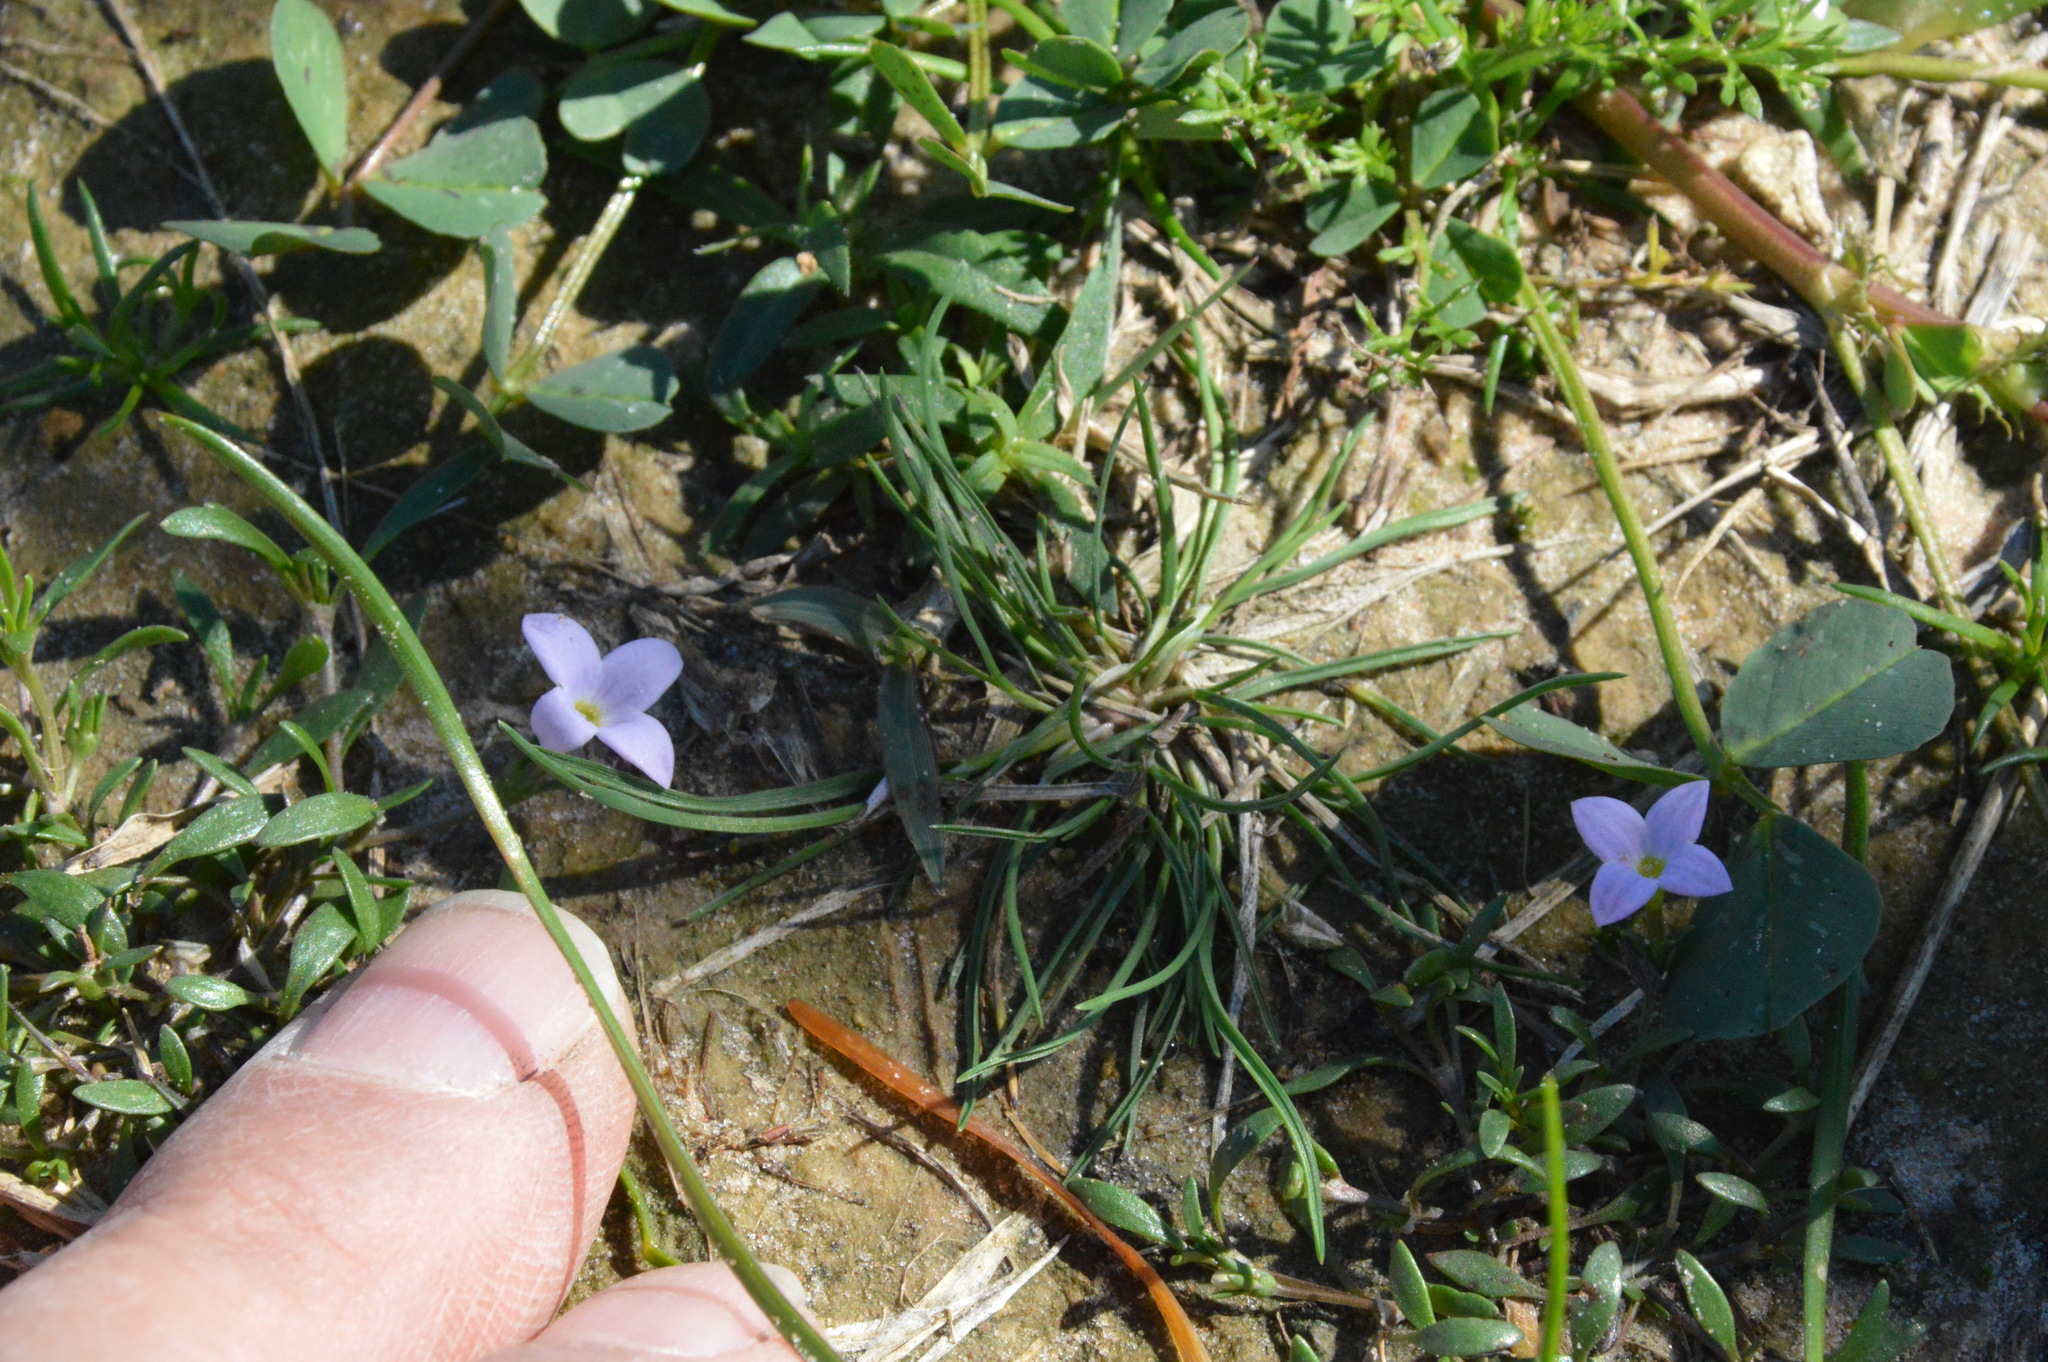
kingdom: Plantae
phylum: Tracheophyta
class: Magnoliopsida
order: Gentianales
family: Rubiaceae
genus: Houstonia
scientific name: Houstonia rosea
